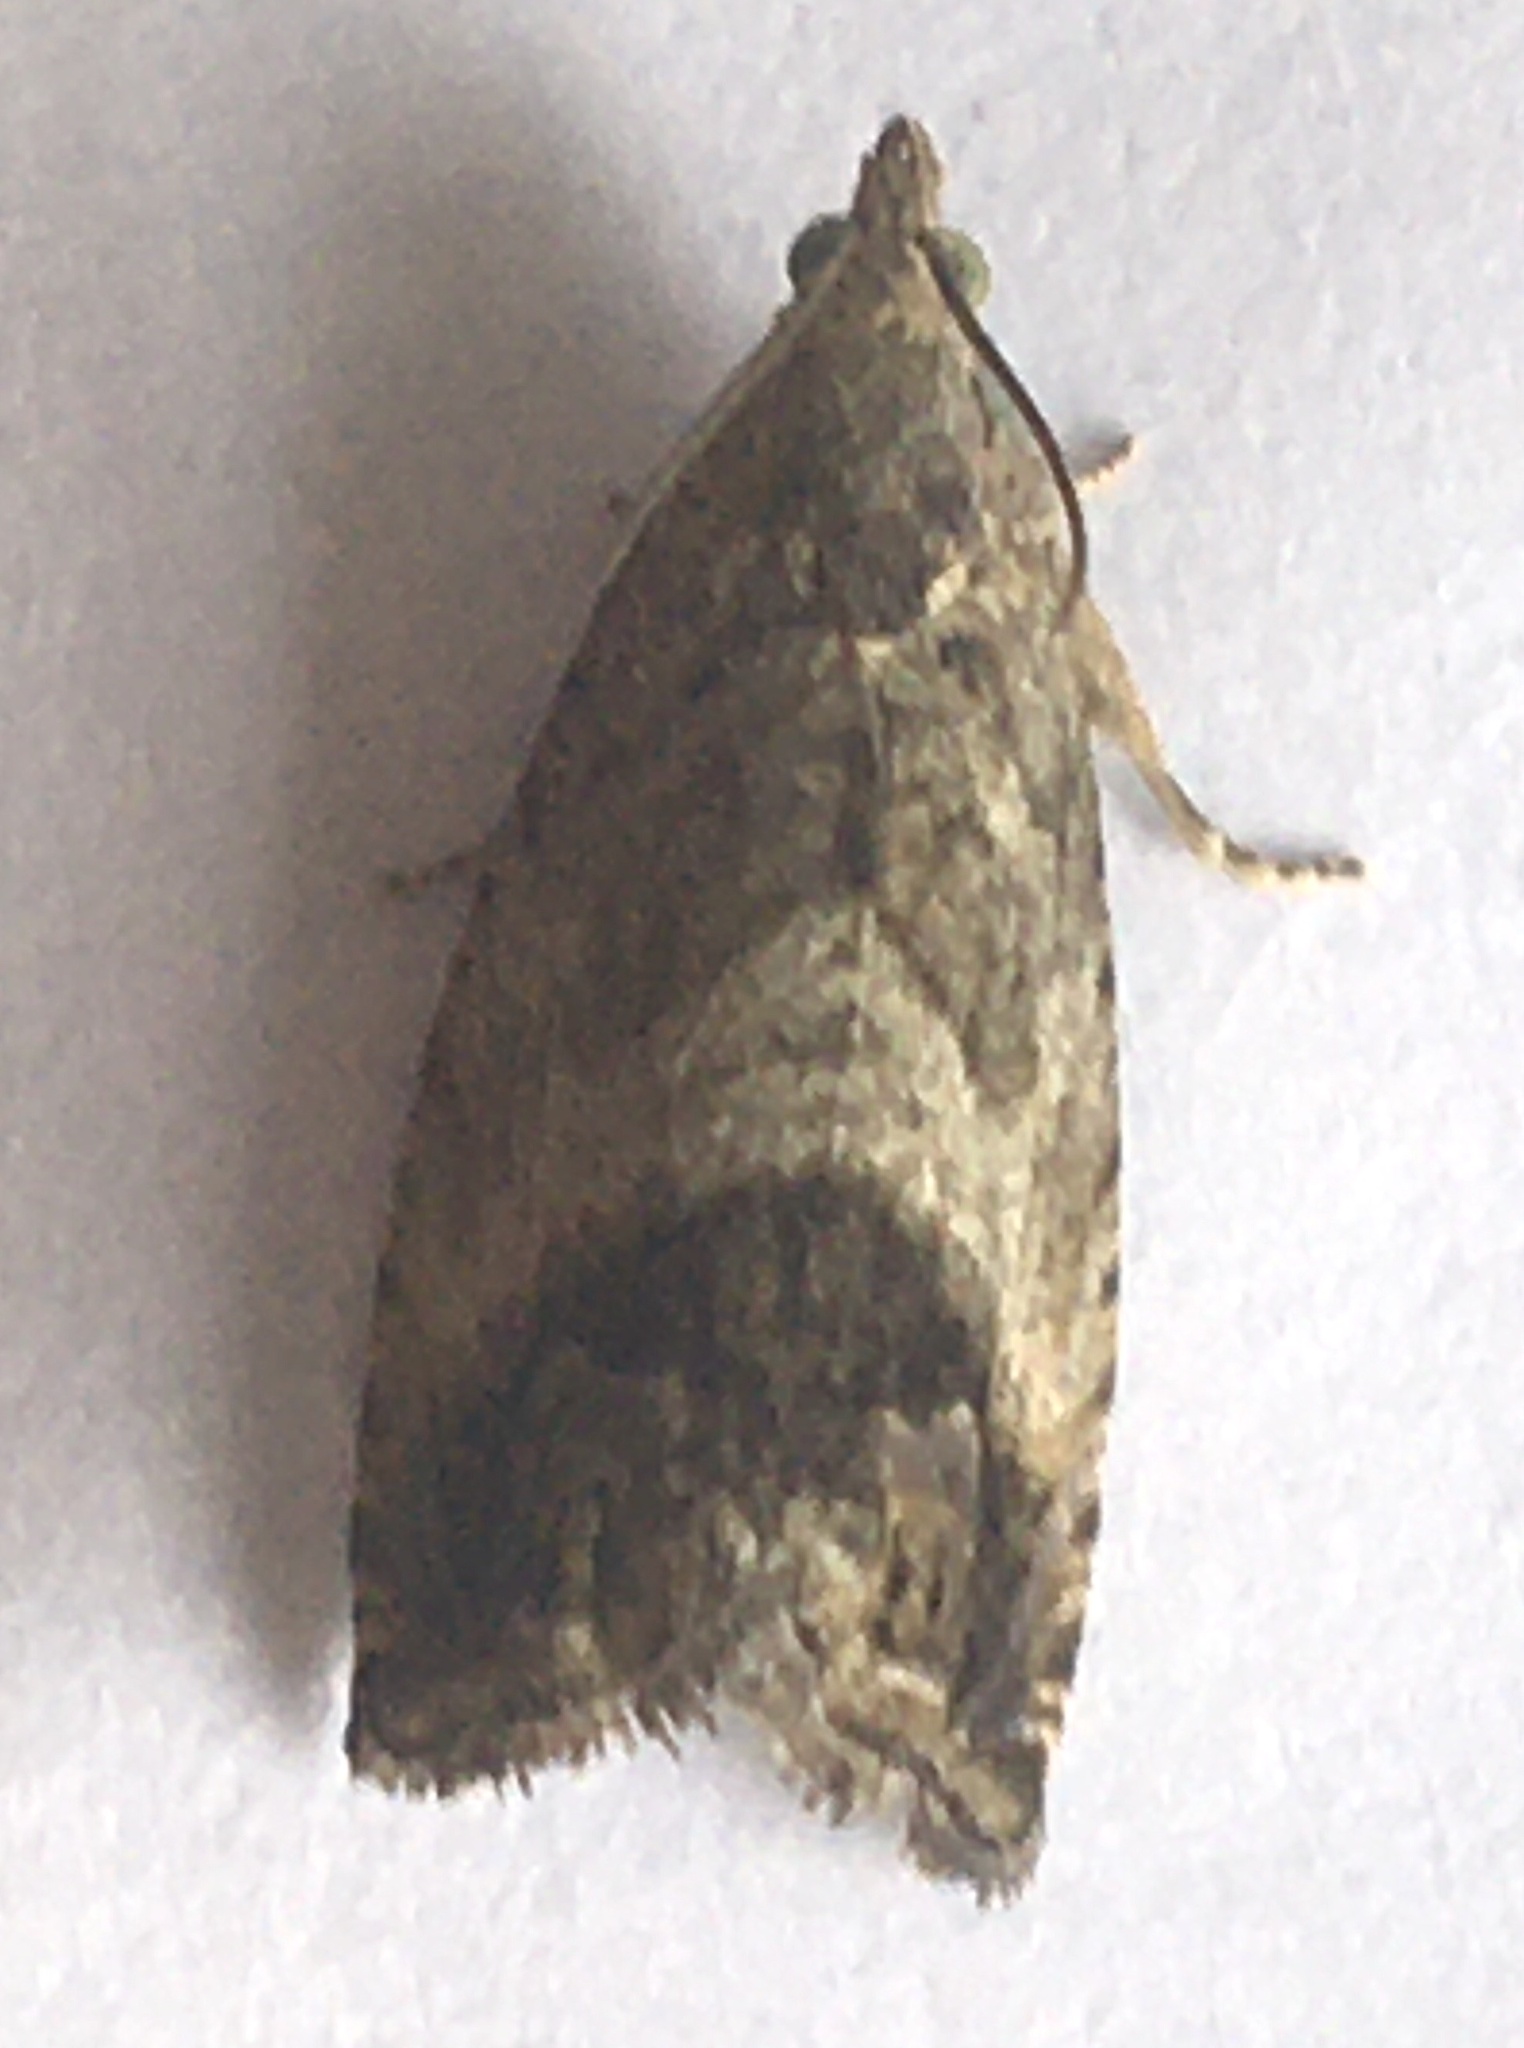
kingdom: Animalia
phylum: Arthropoda
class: Insecta
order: Lepidoptera
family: Tortricidae
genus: Cydia
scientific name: Cydia splendana
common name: De: kastanienwickler, eichenwickler es: oruga de la castaña fr: carpocapse des châtaignes it: cidia o tortrice tardiva delle castagne pt: bichado das castanhas gb: acorn moth, chestnut fruit tortrix
